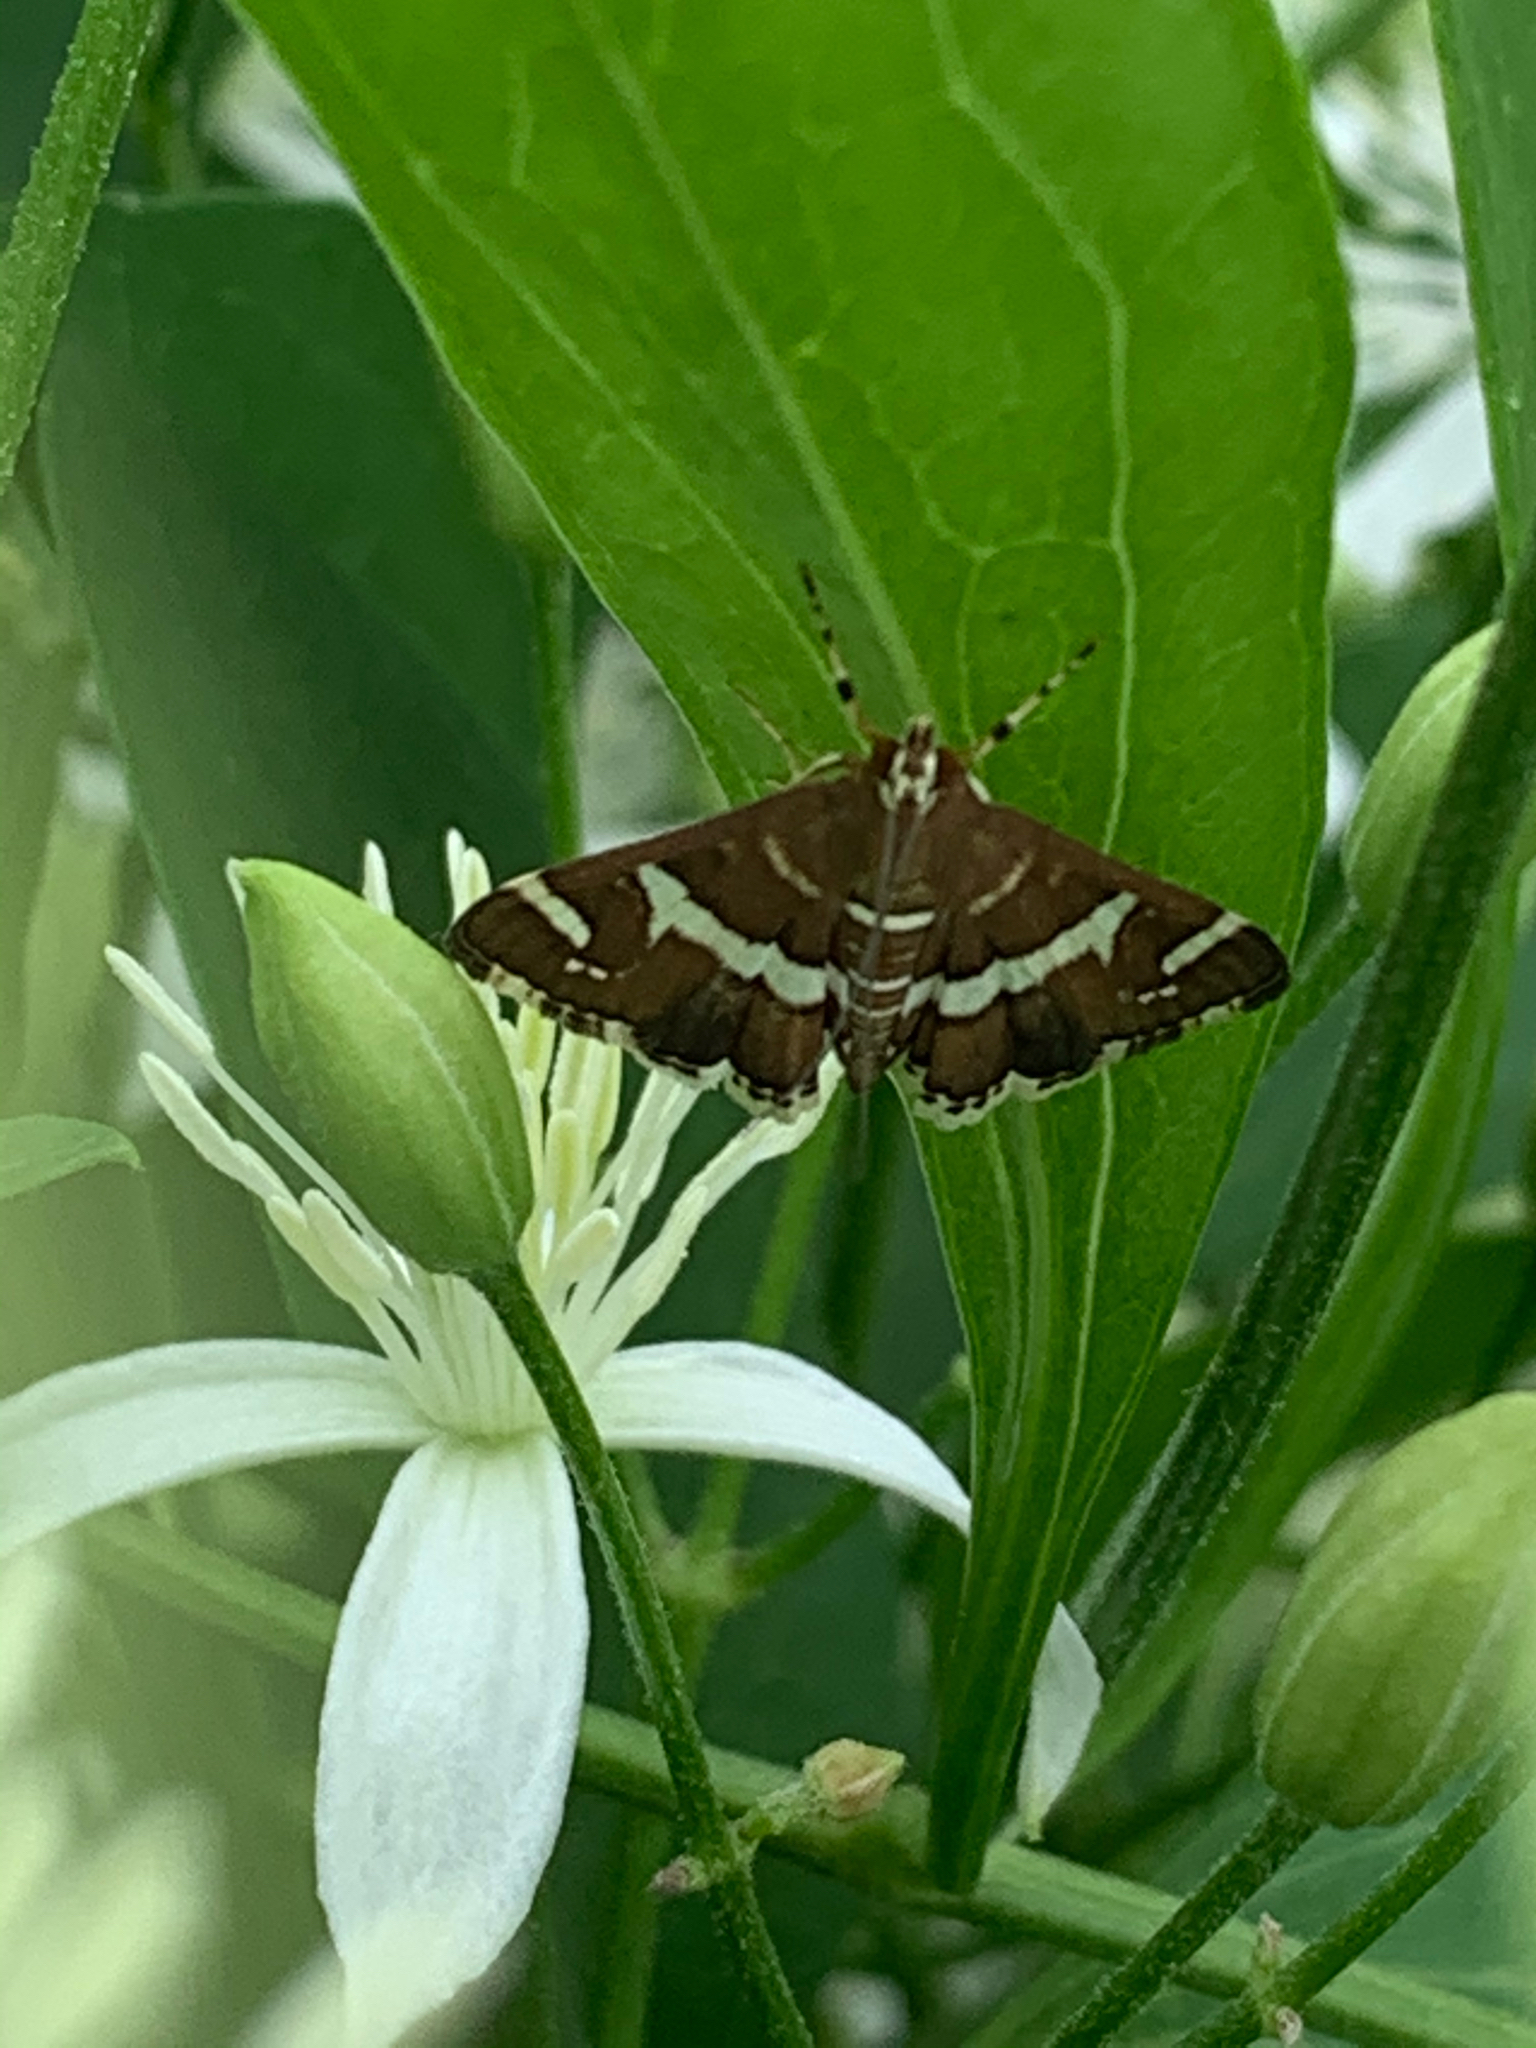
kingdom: Animalia
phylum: Arthropoda
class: Insecta
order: Lepidoptera
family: Crambidae
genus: Spoladea
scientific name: Spoladea recurvalis
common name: Beet webworm moth
